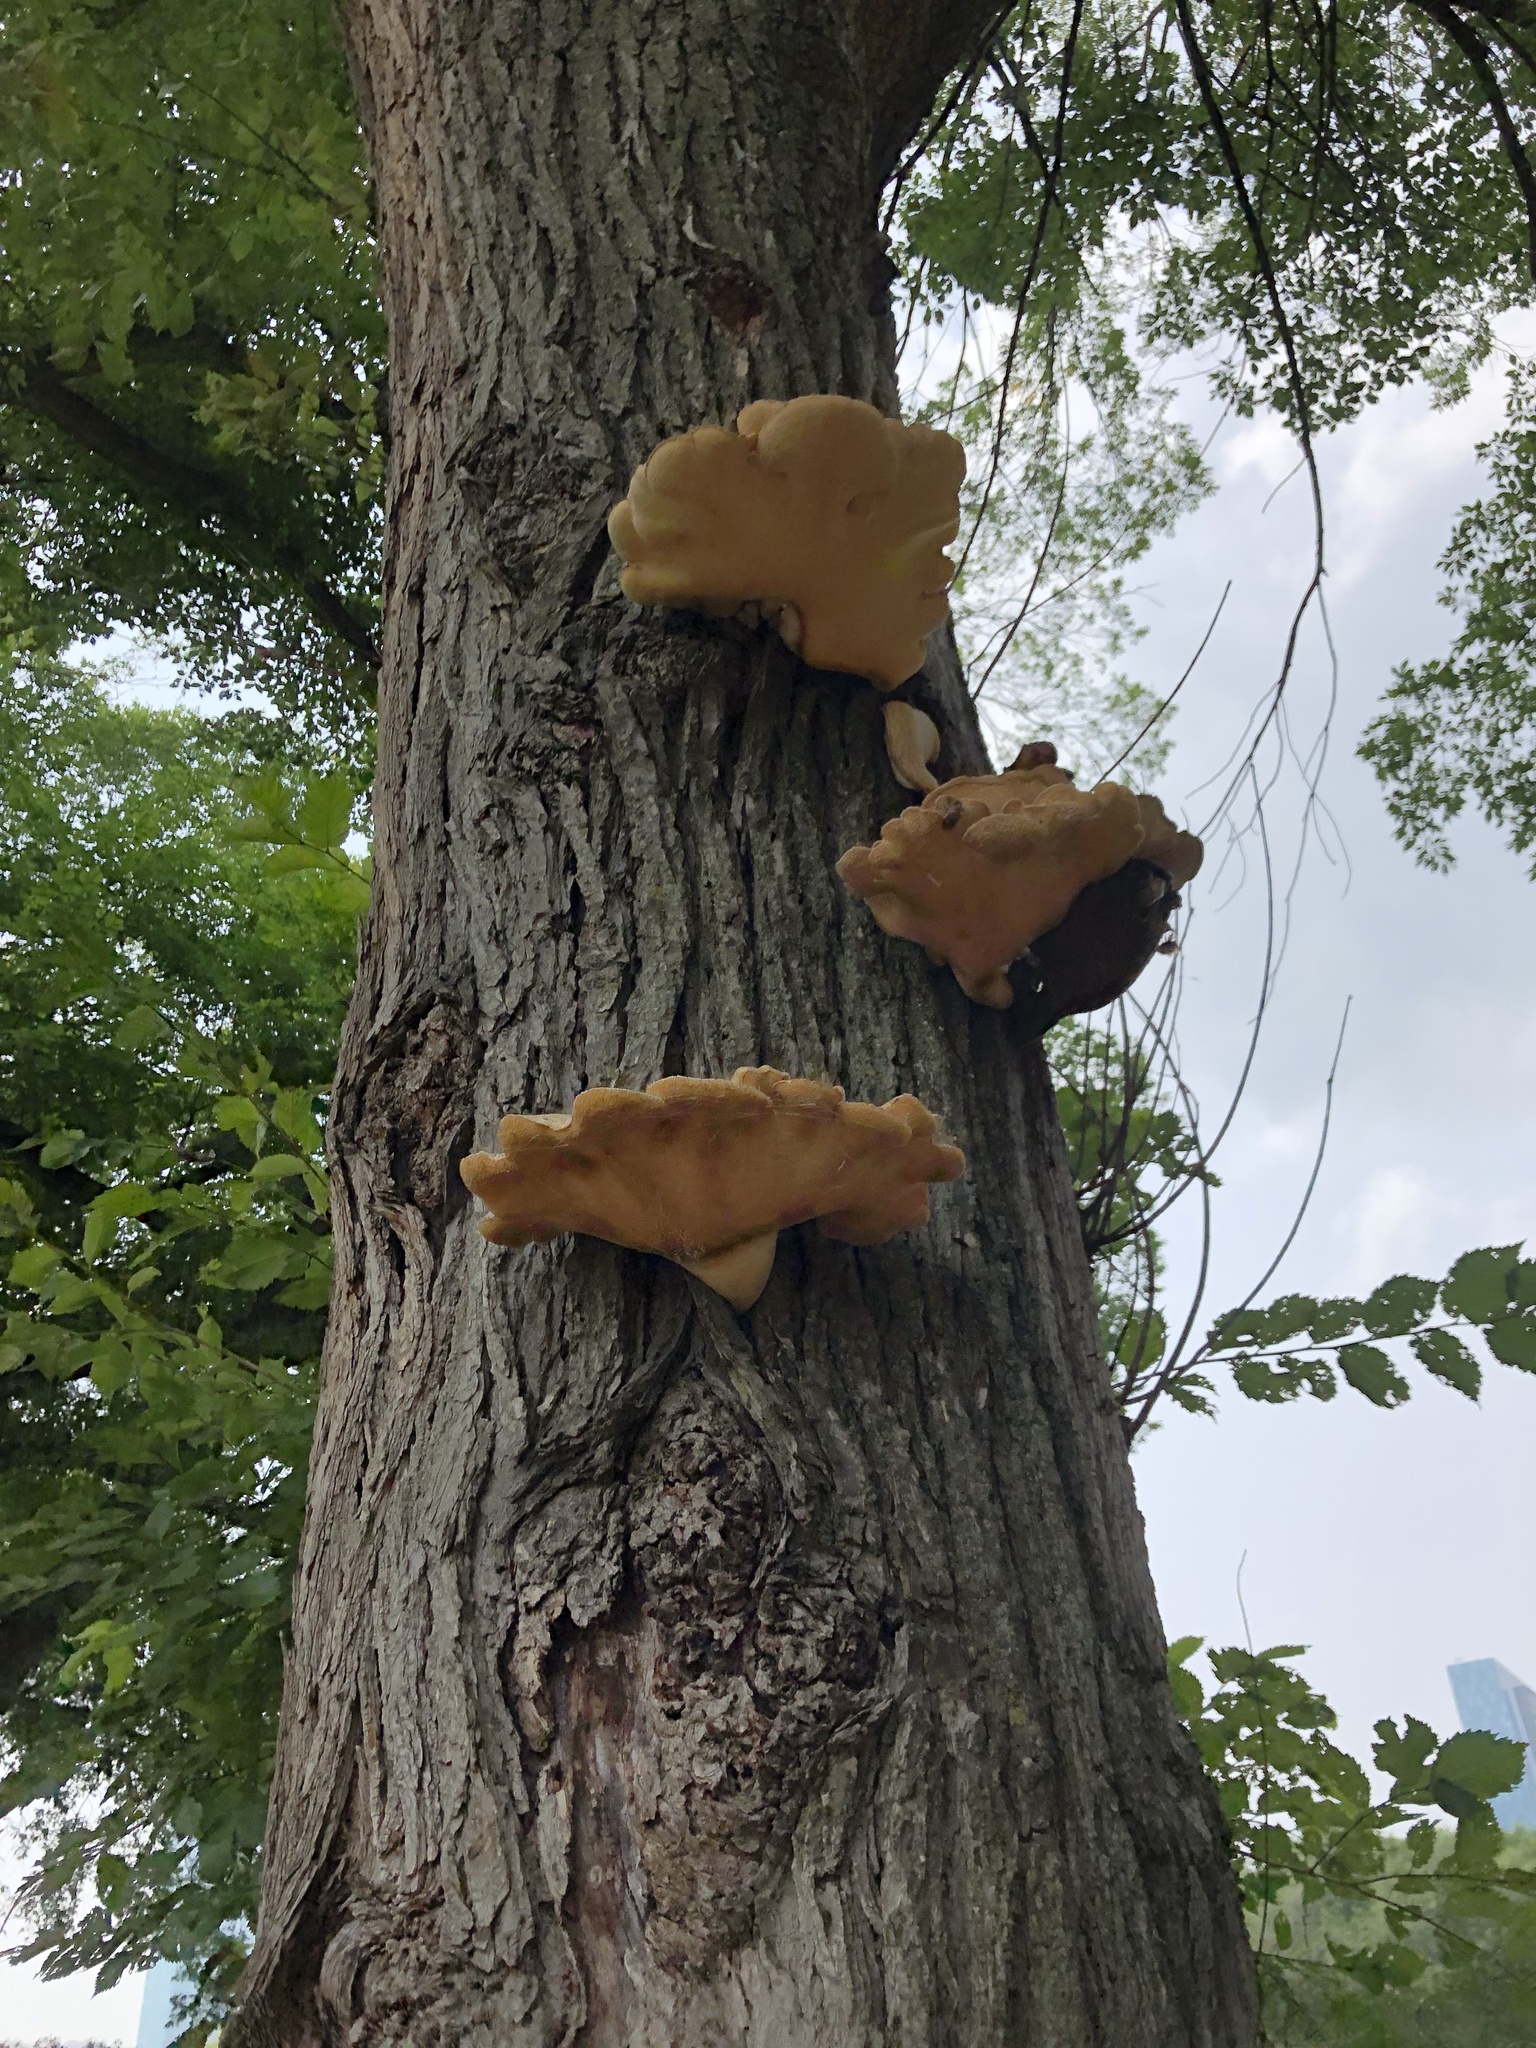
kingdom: Fungi
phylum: Basidiomycota
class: Agaricomycetes
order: Polyporales
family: Polyporaceae
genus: Cerioporus
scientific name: Cerioporus squamosus
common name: Dryad's saddle
